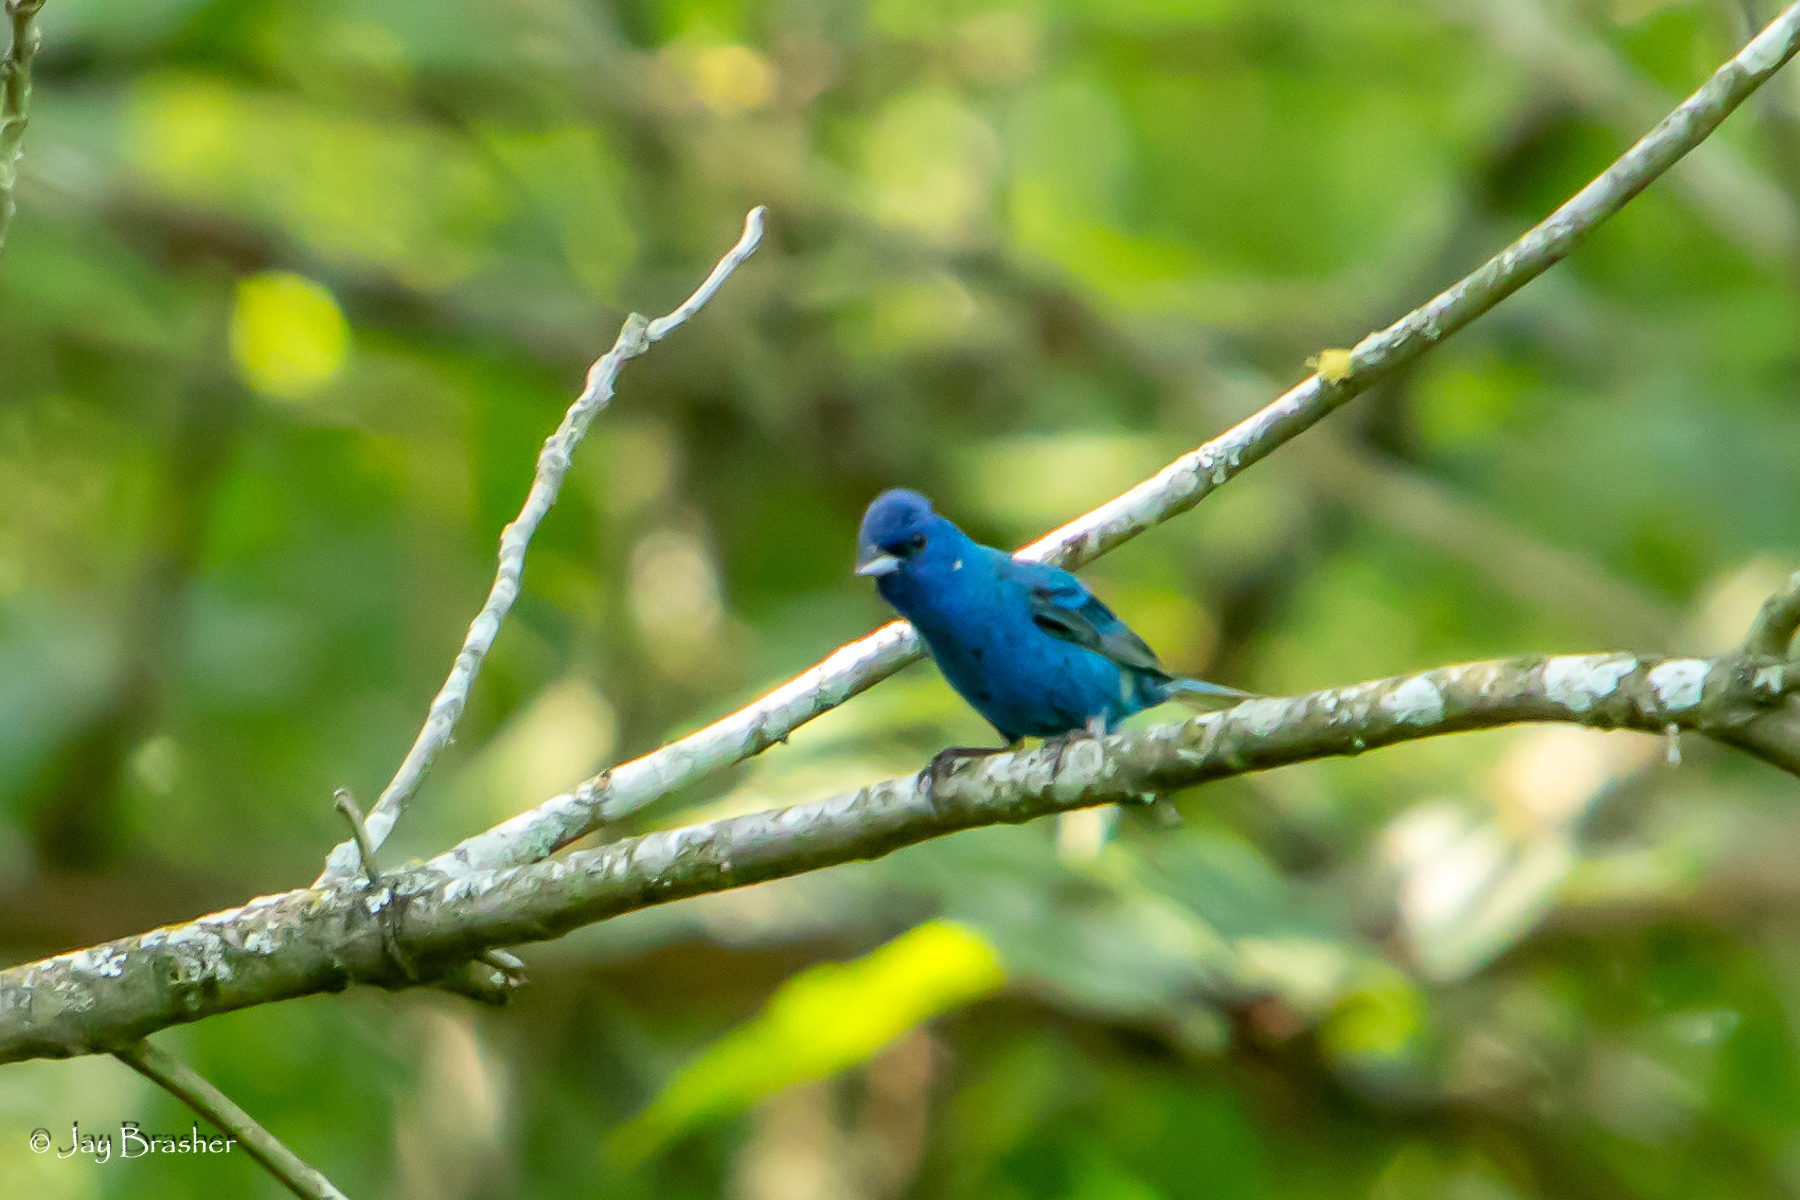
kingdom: Animalia
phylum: Chordata
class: Aves
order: Passeriformes
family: Cardinalidae
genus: Passerina
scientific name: Passerina cyanea
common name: Indigo bunting
